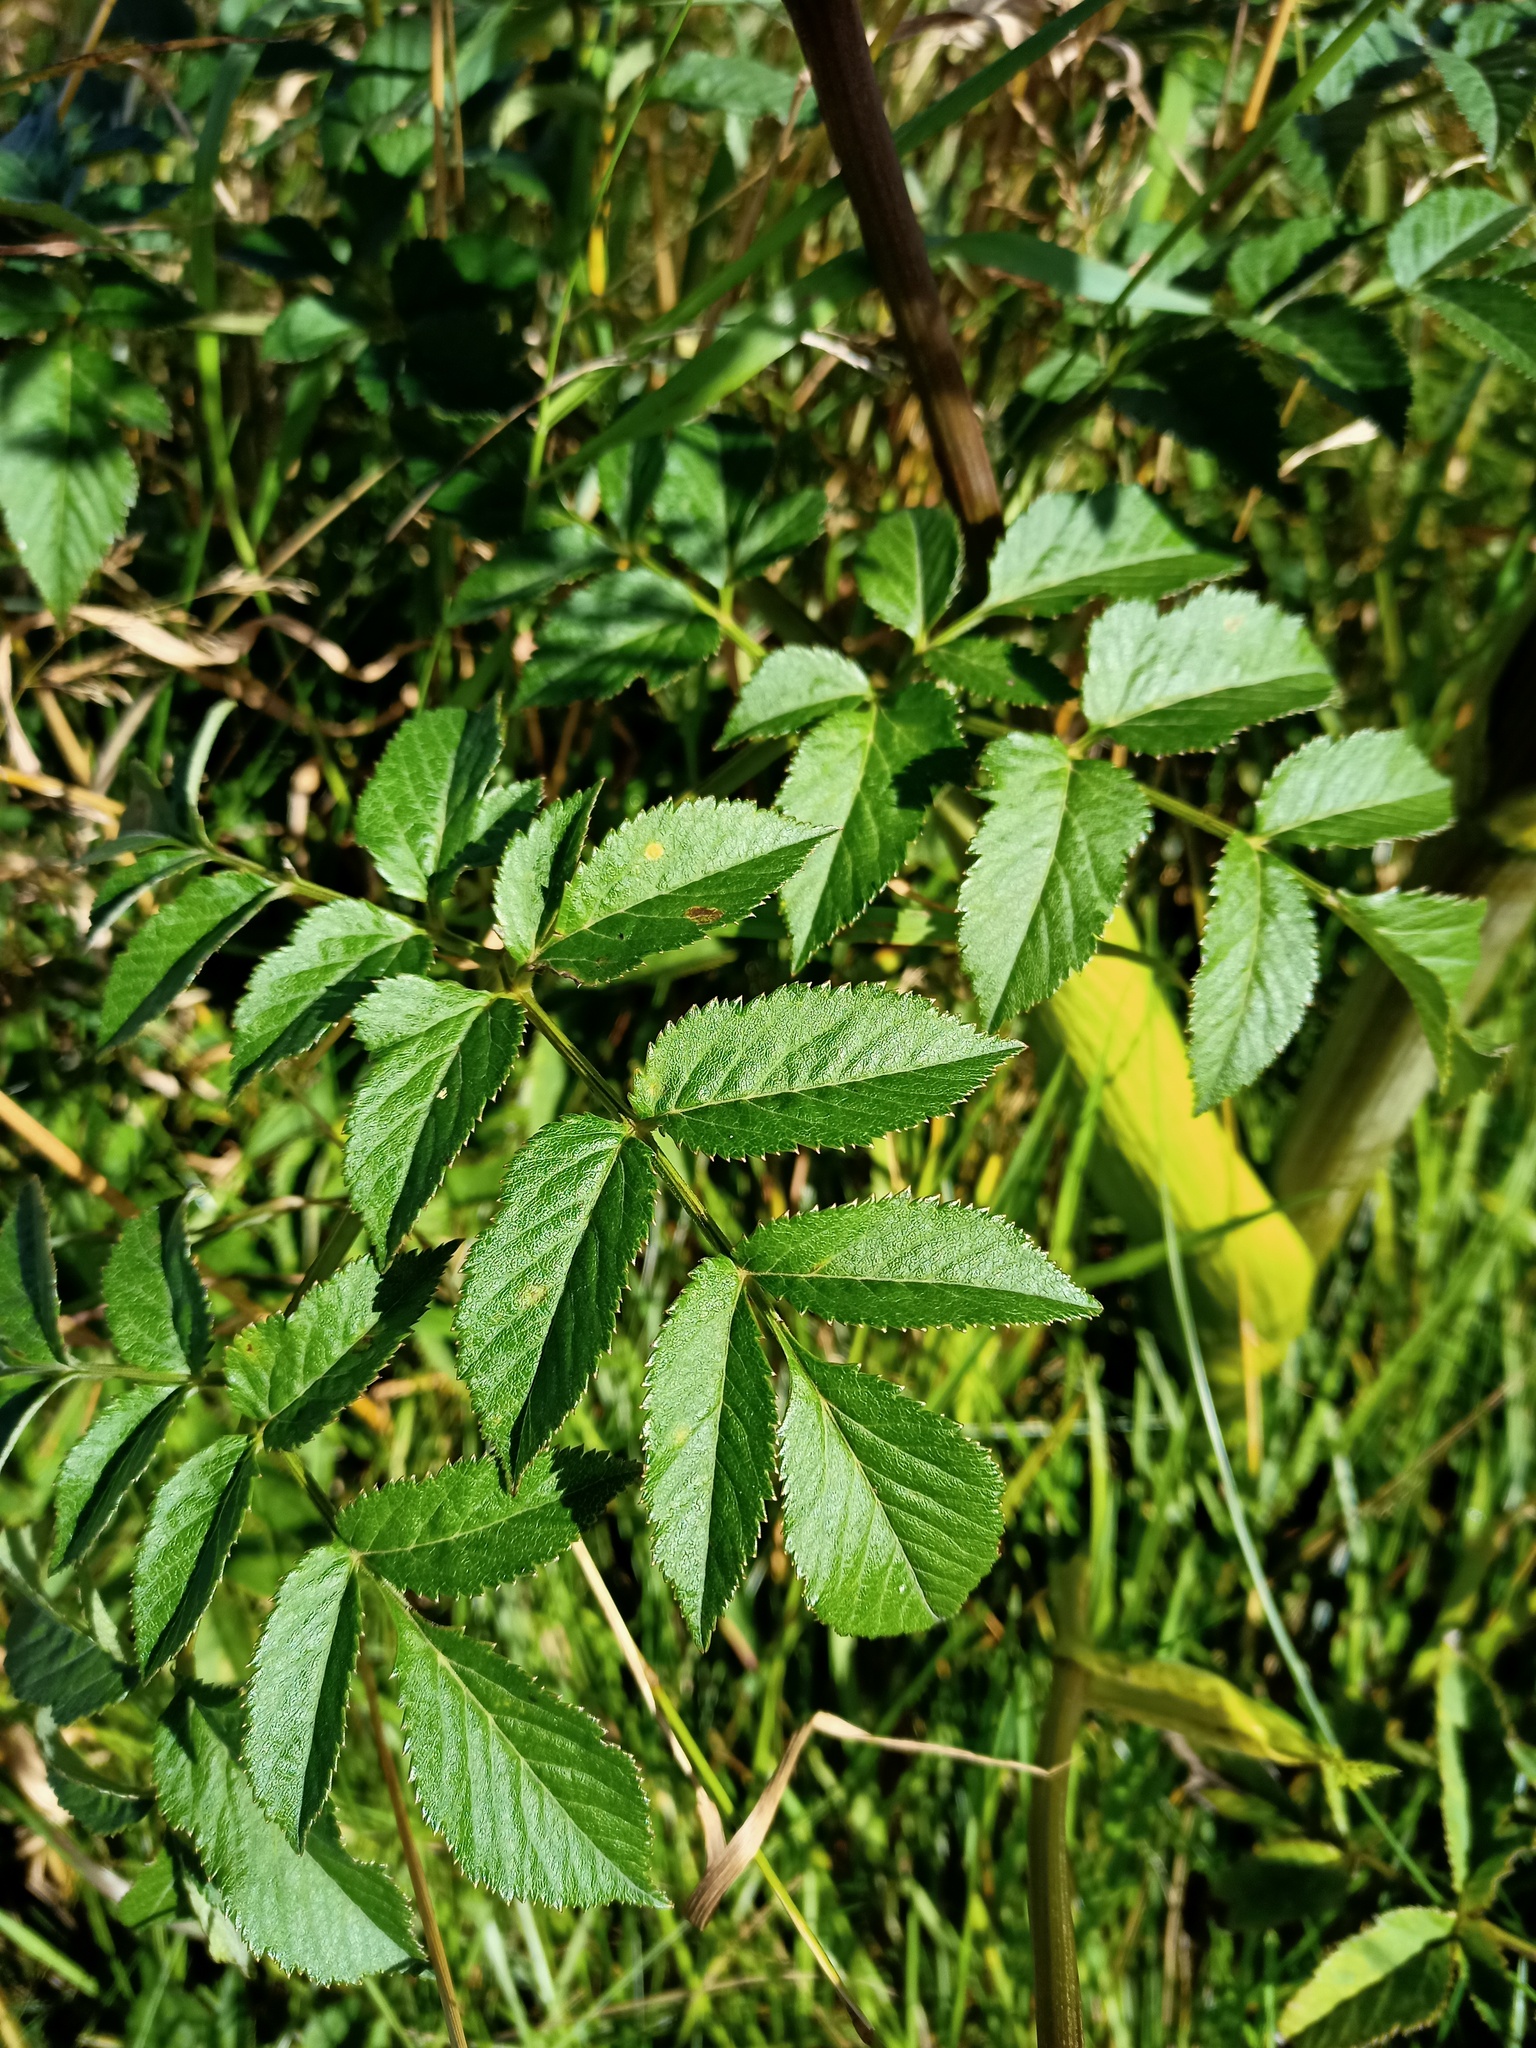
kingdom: Plantae
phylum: Tracheophyta
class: Magnoliopsida
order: Apiales
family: Apiaceae
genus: Angelica
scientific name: Angelica sylvestris
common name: Wild angelica
